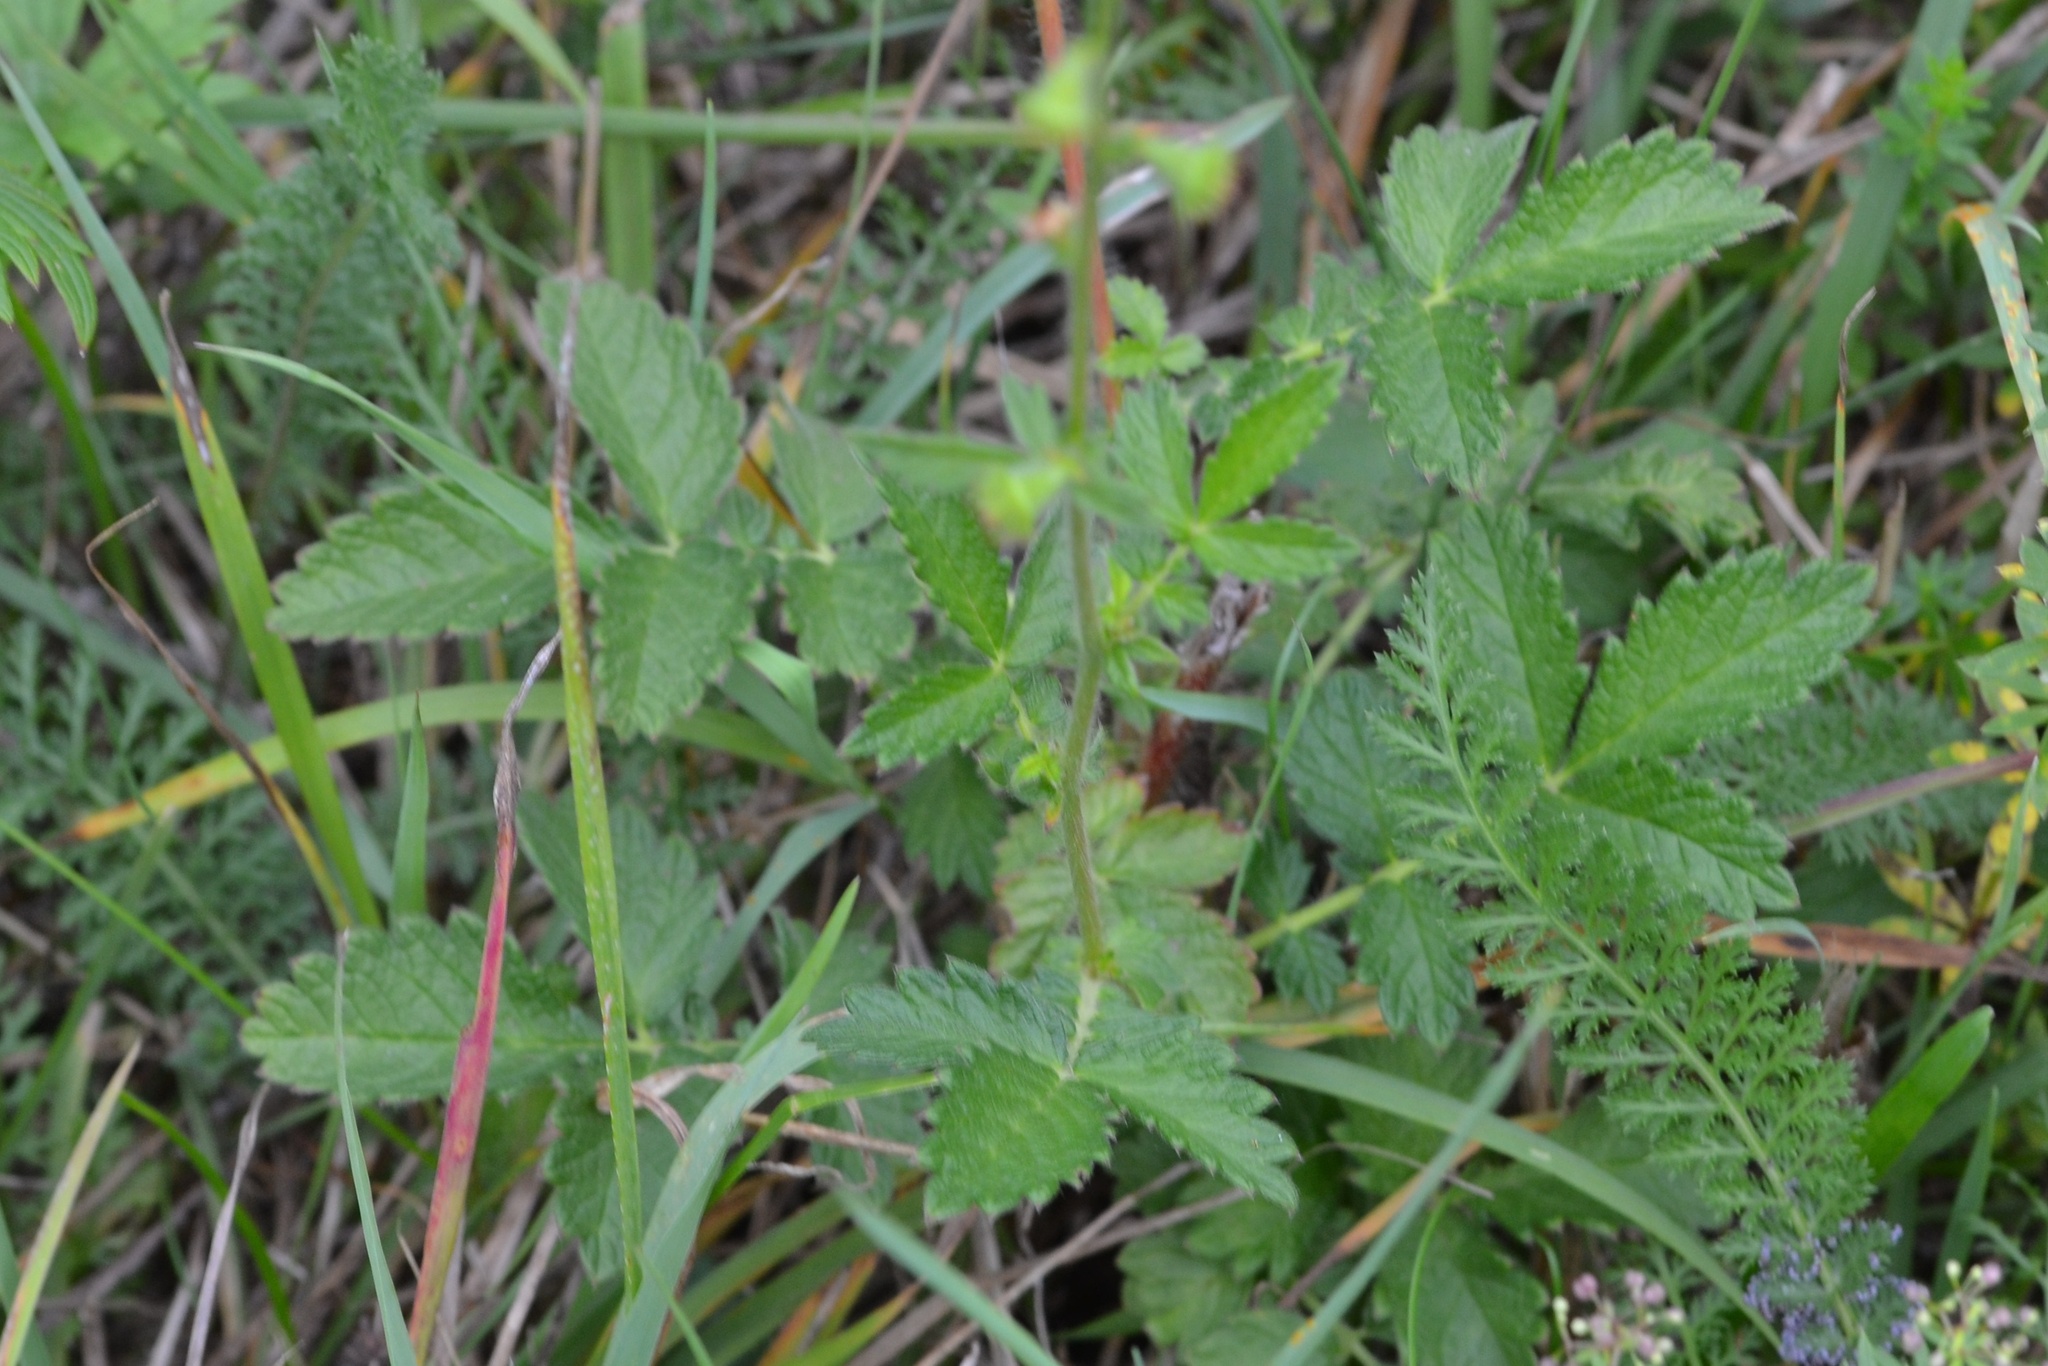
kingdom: Plantae
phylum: Tracheophyta
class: Magnoliopsida
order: Rosales
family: Rosaceae
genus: Agrimonia
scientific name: Agrimonia eupatoria
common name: Agrimony
